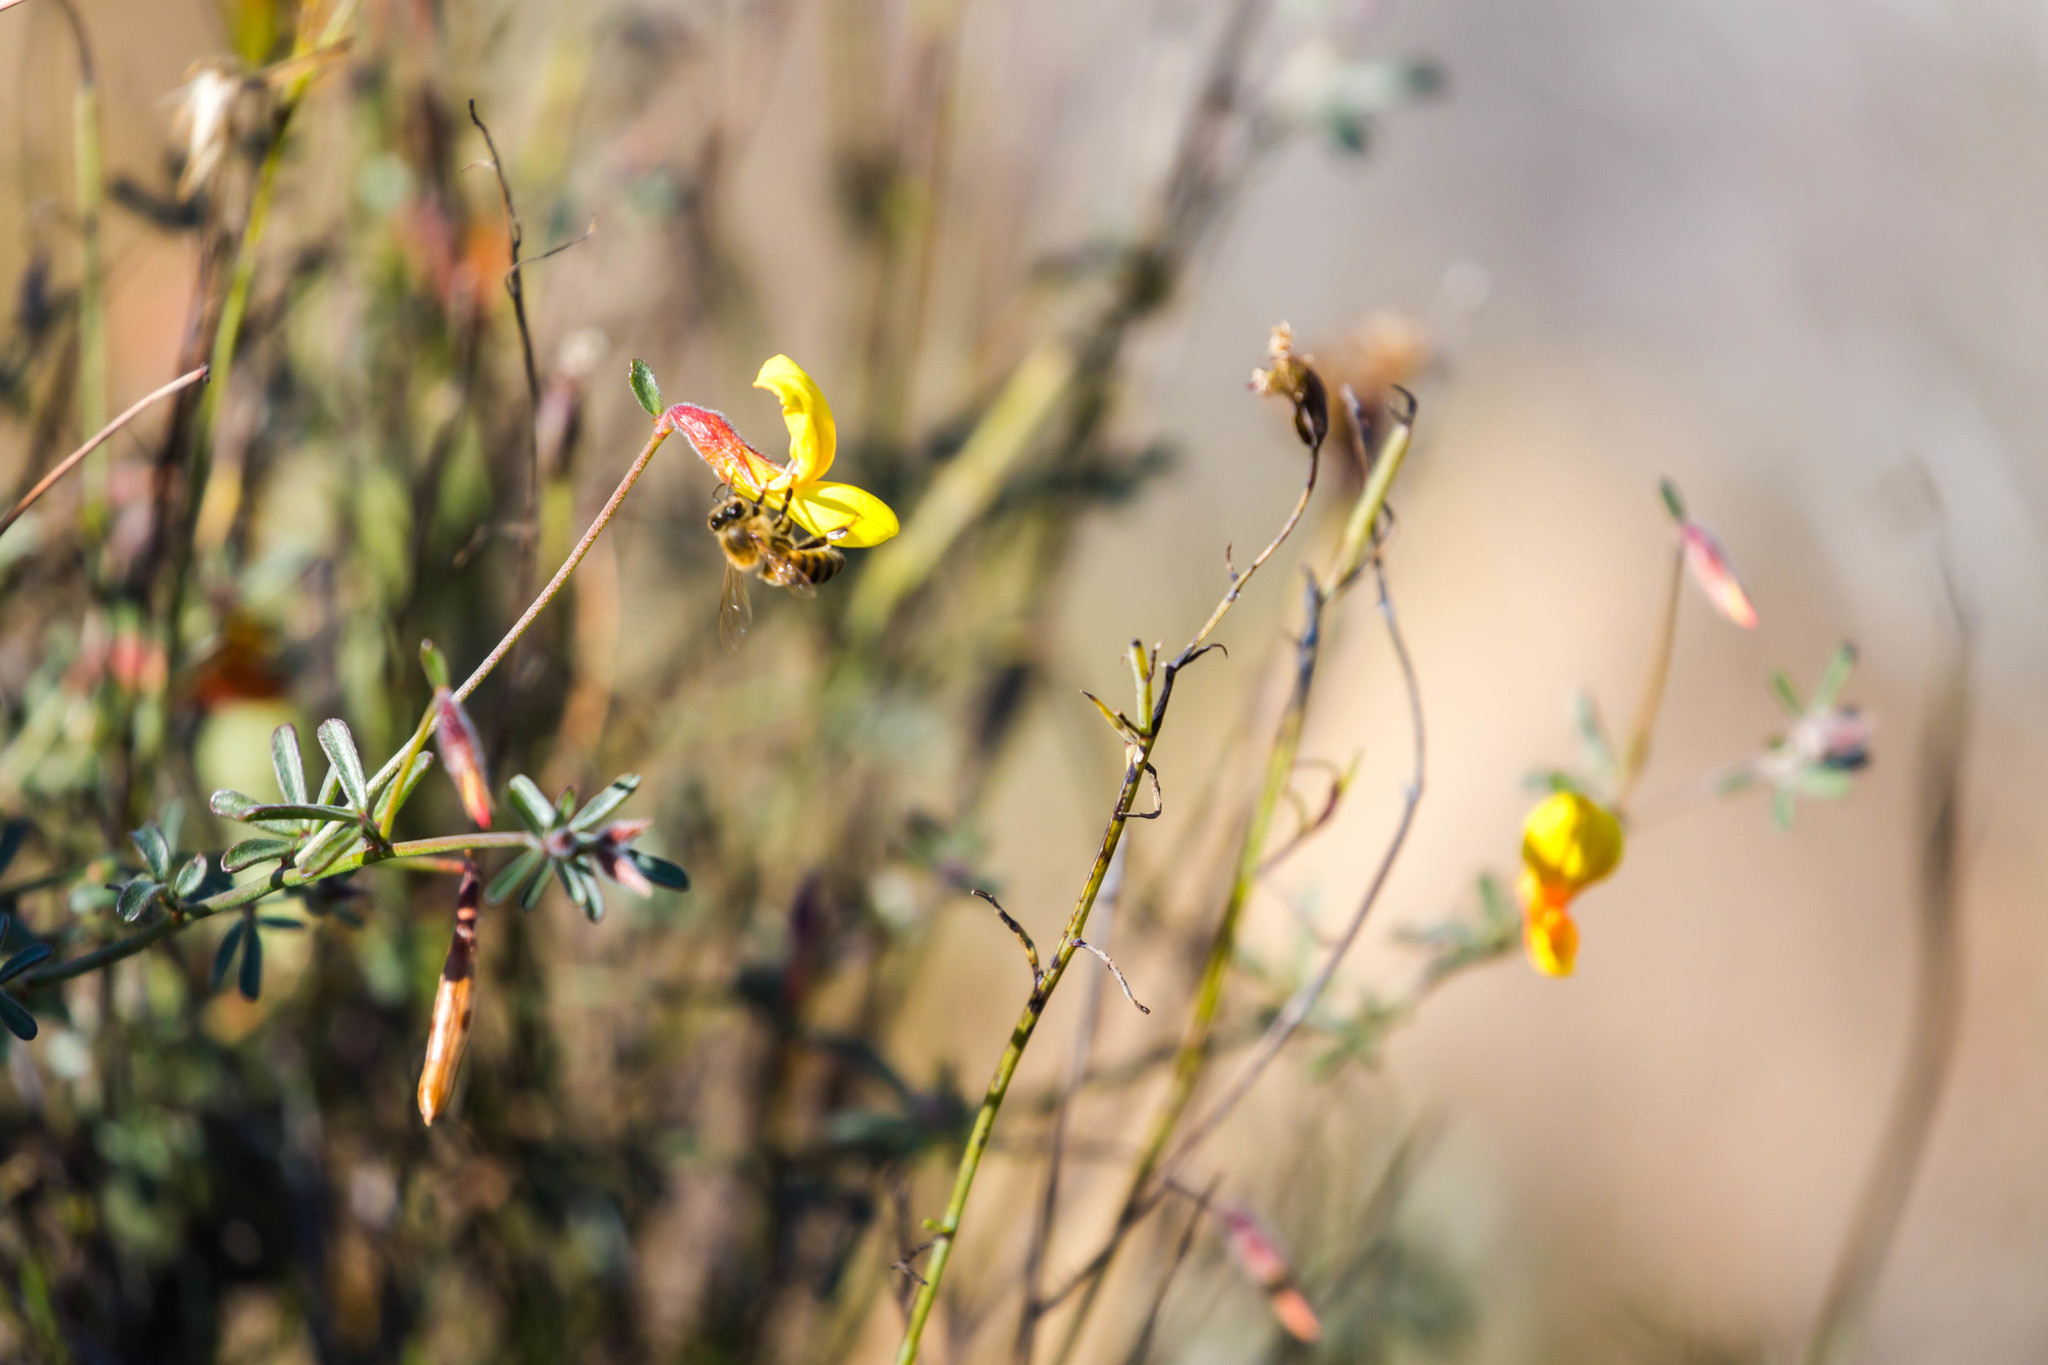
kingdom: Plantae
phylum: Tracheophyta
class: Magnoliopsida
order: Fabales
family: Fabaceae
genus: Acmispon
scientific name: Acmispon rigidus
